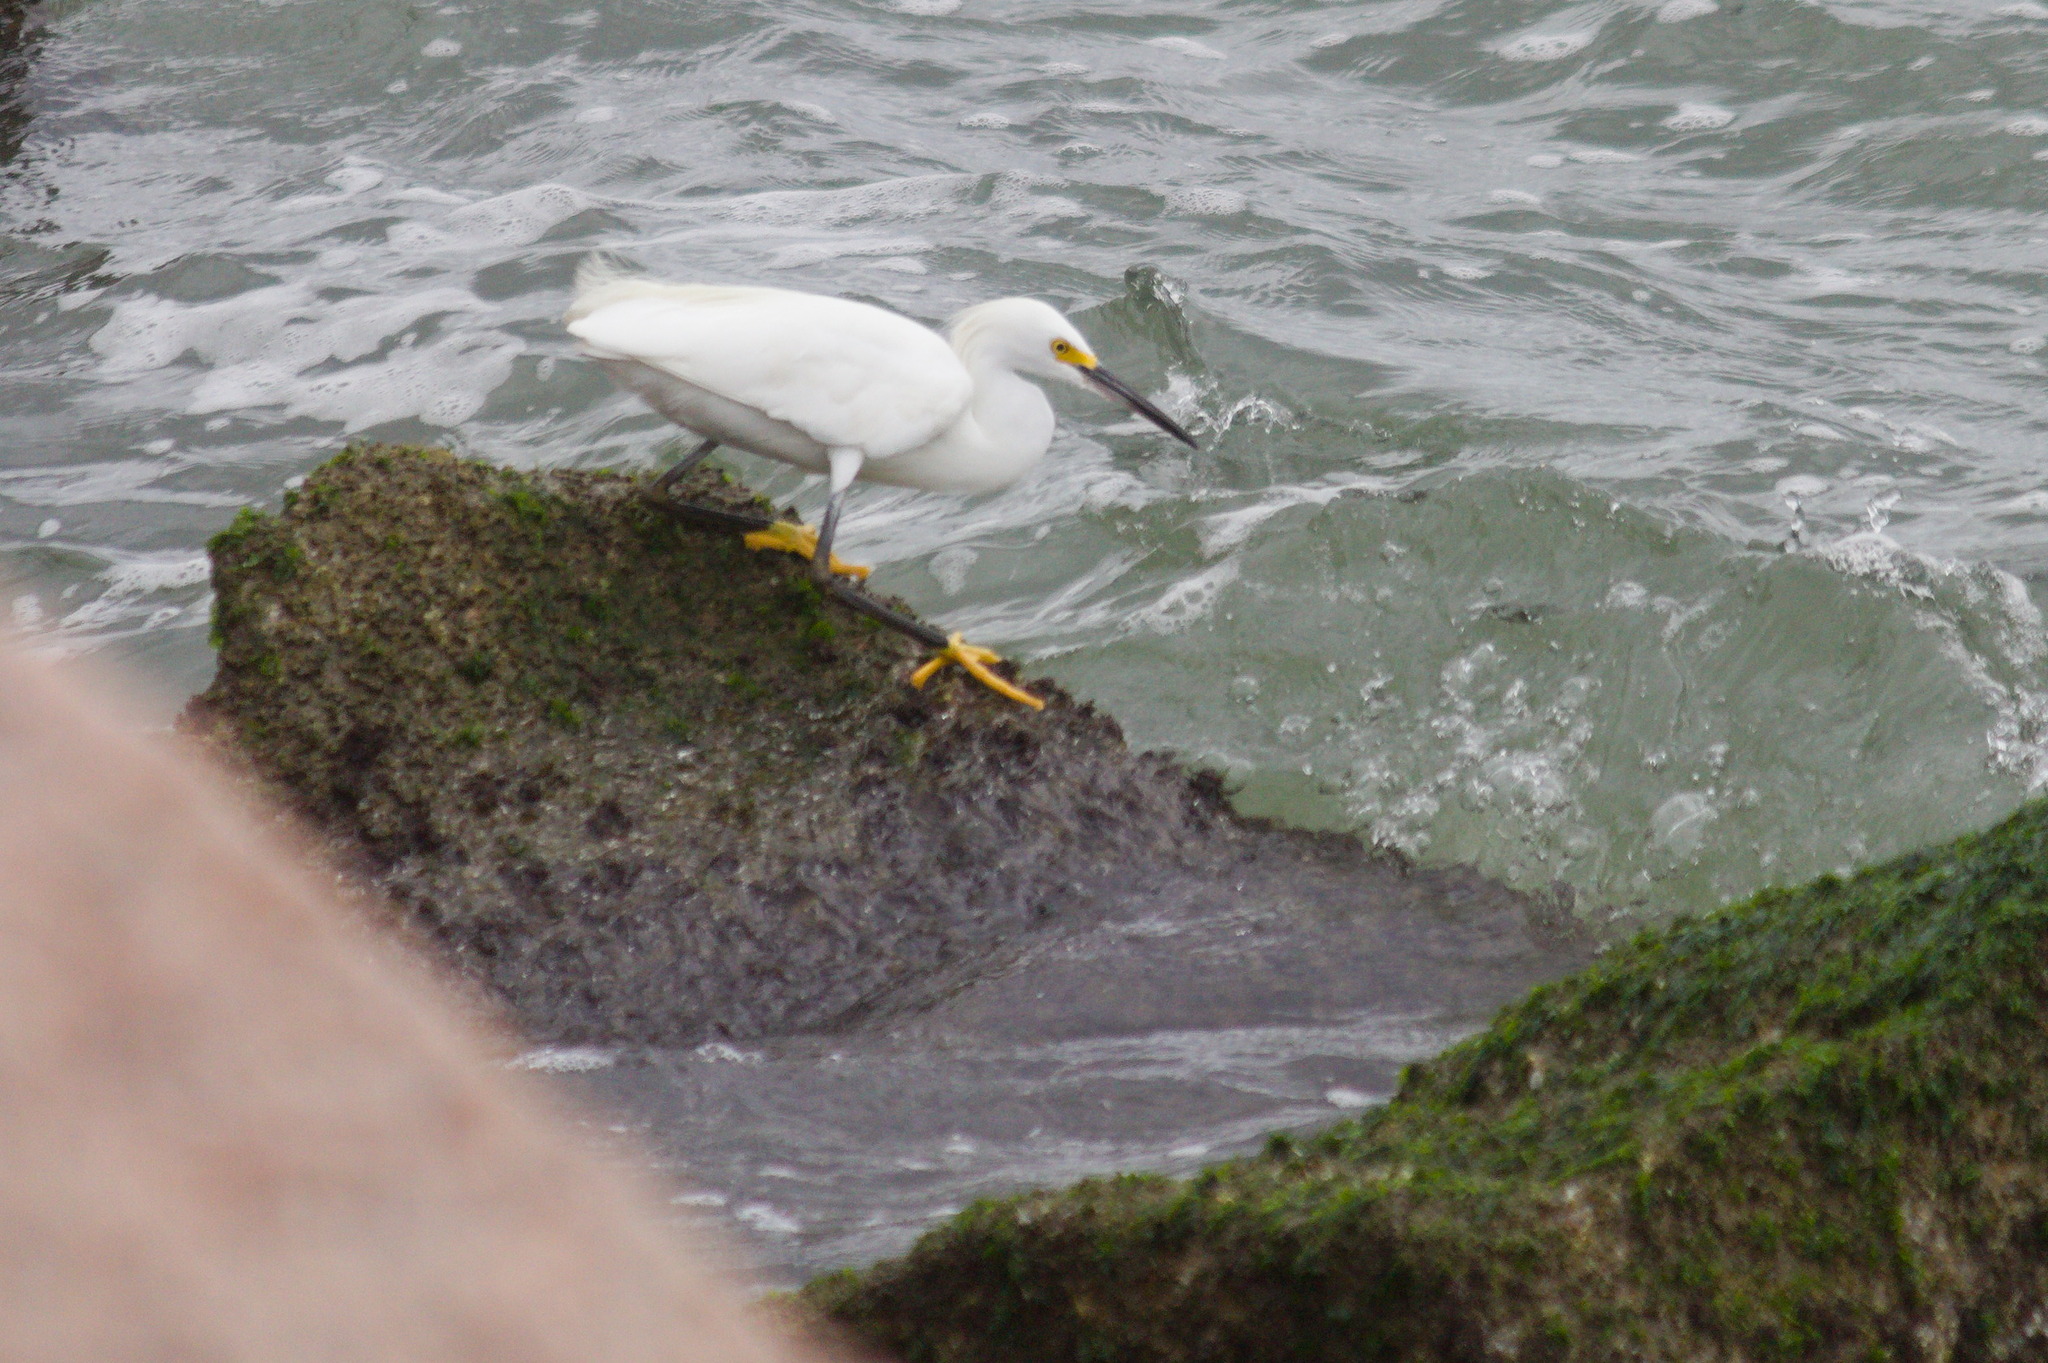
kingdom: Animalia
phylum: Chordata
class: Aves
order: Pelecaniformes
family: Ardeidae
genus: Egretta
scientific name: Egretta thula
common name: Snowy egret
